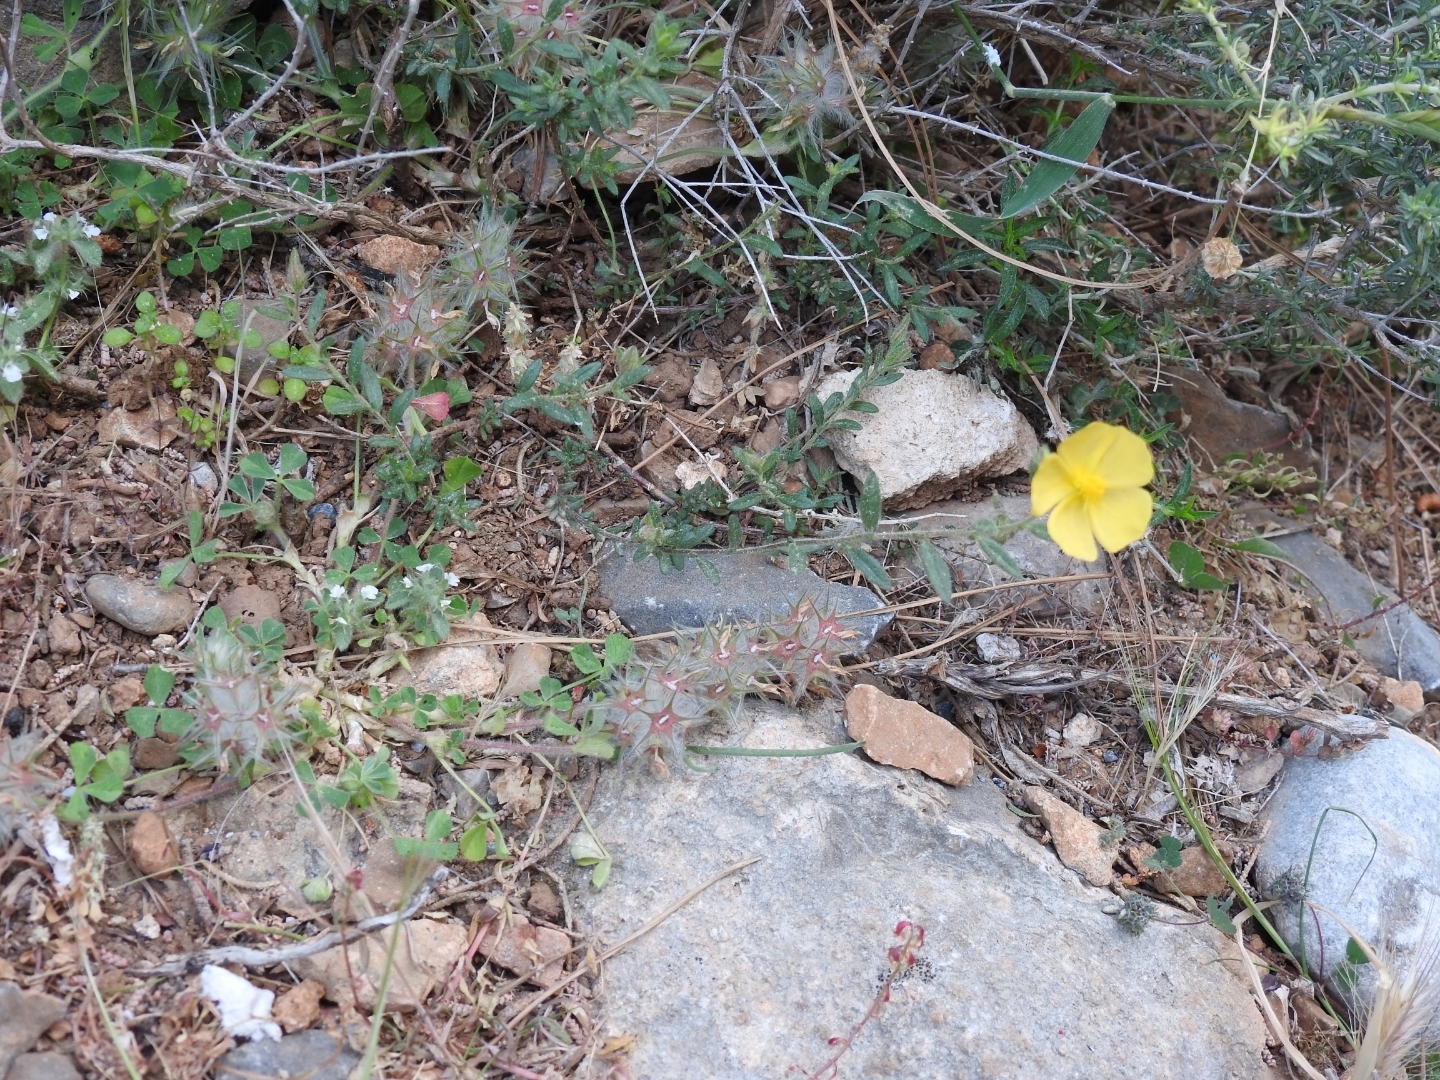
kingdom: Plantae
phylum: Tracheophyta
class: Magnoliopsida
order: Malvales
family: Cistaceae
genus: Fumana
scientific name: Fumana arabica
